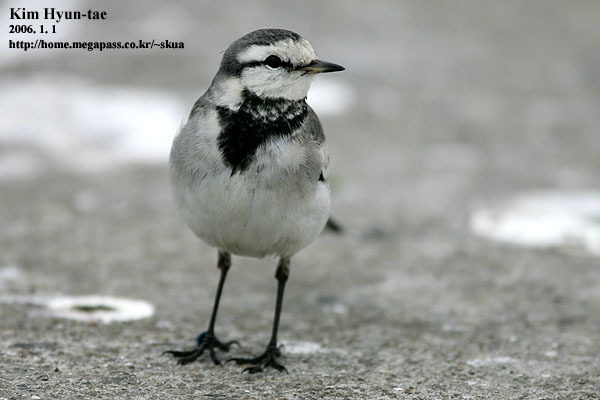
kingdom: Animalia
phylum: Chordata
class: Aves
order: Passeriformes
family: Motacillidae
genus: Motacilla
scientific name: Motacilla alba
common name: White wagtail
